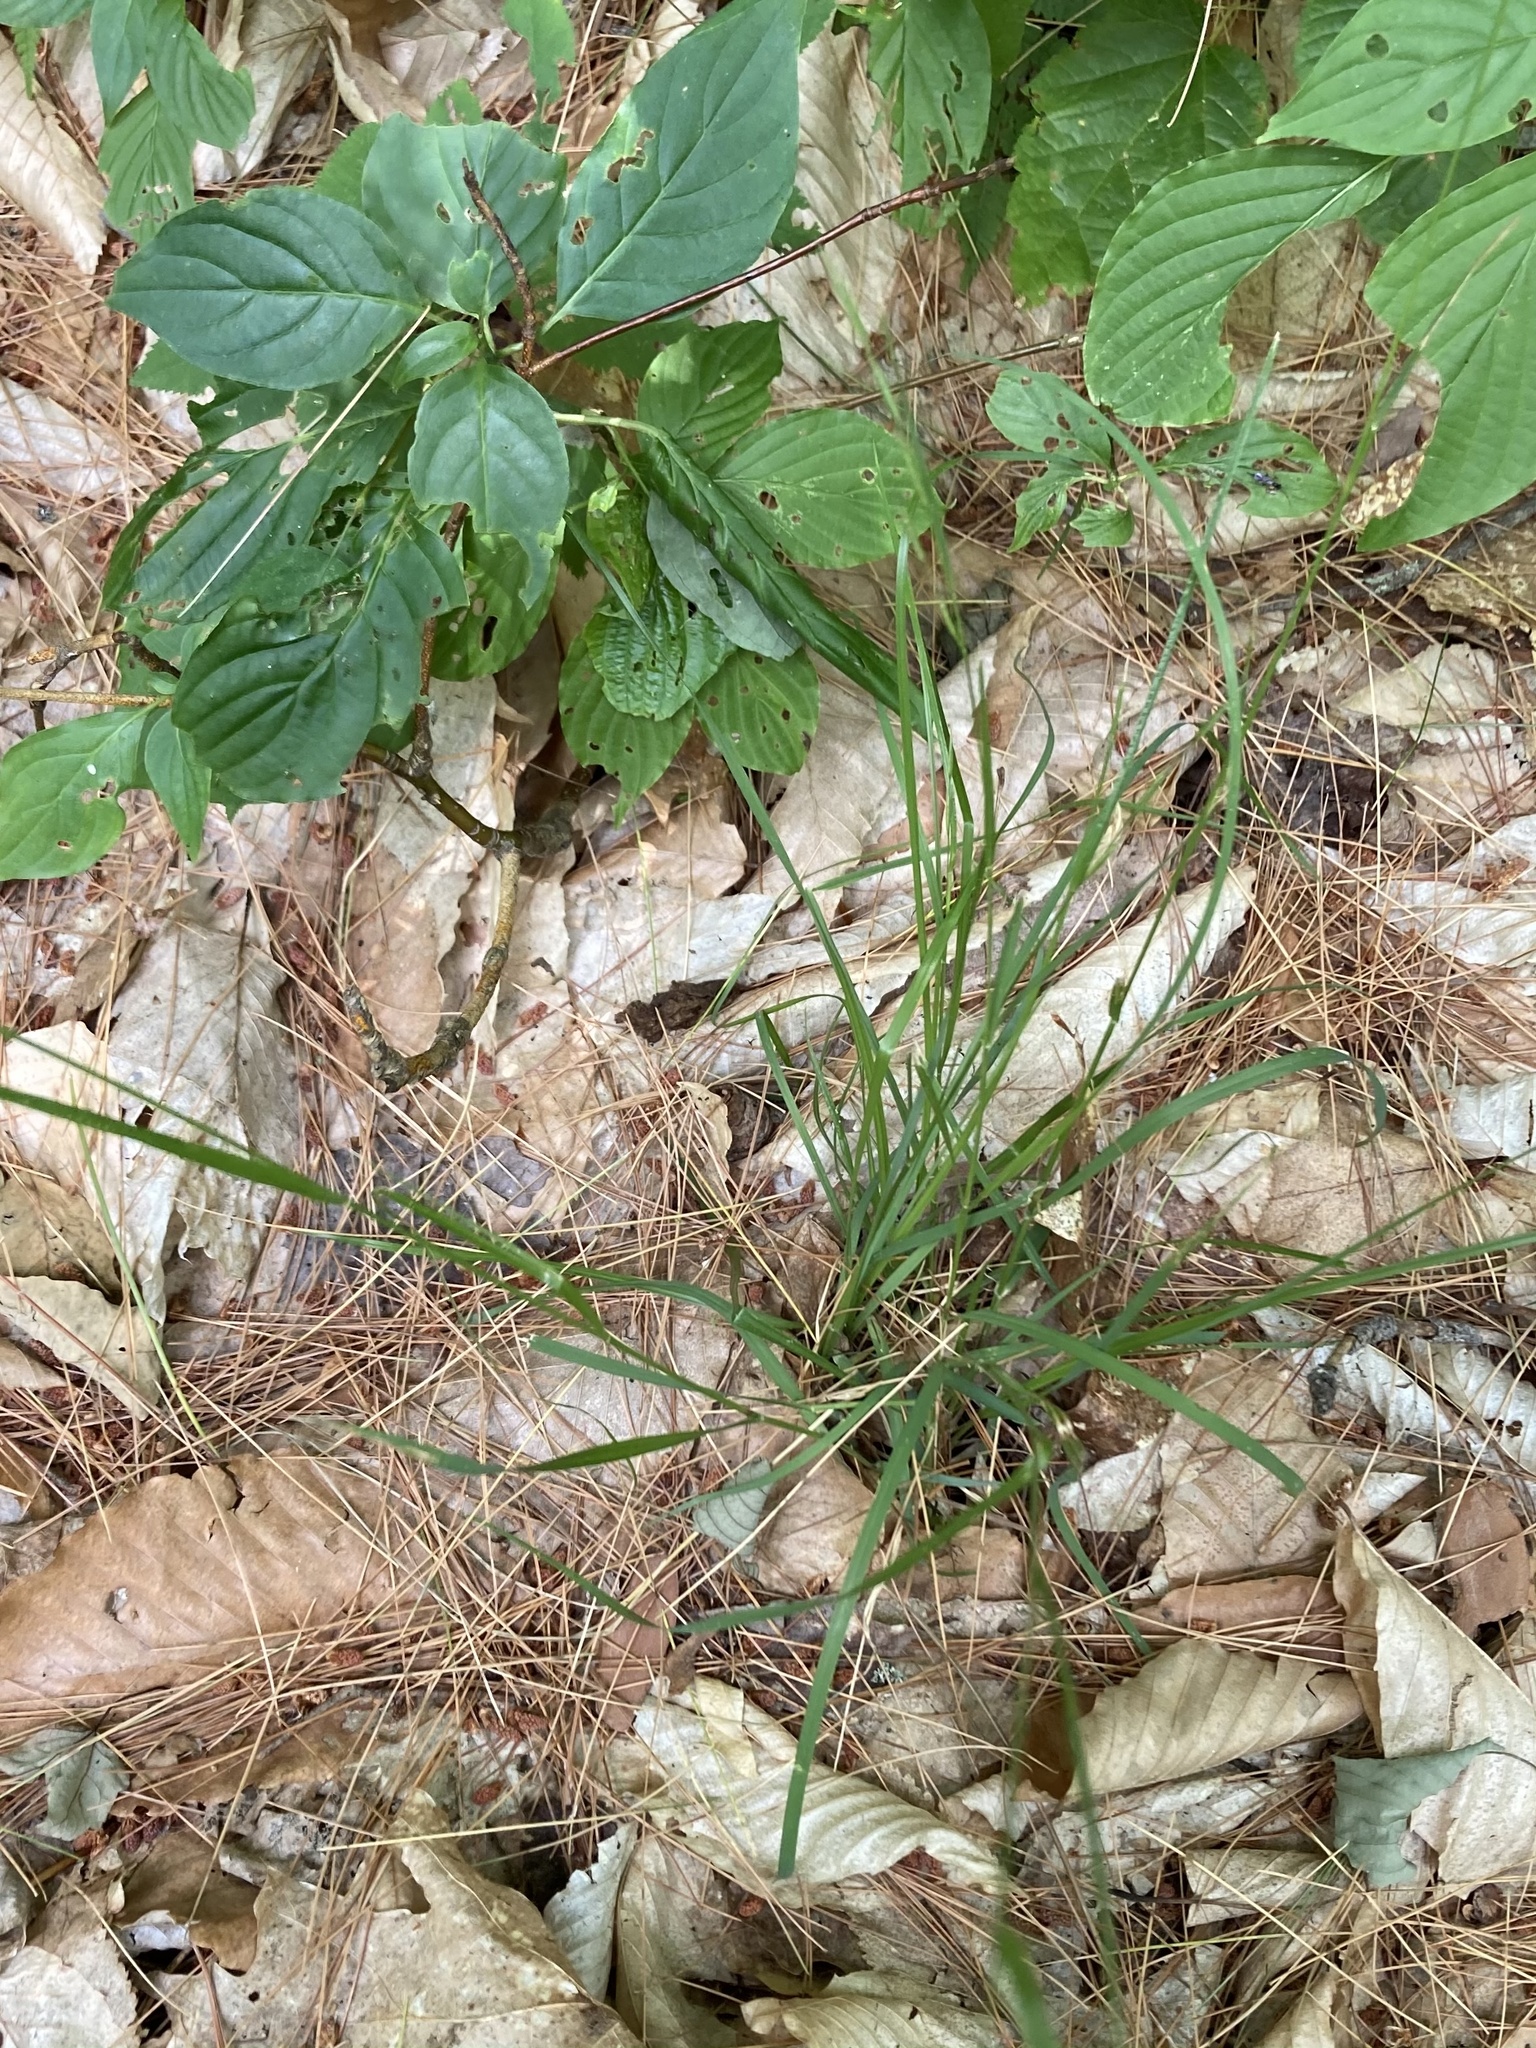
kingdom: Plantae
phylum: Tracheophyta
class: Liliopsida
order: Poales
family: Poaceae
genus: Danthonia
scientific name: Danthonia compressa
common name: Flat-stem oat grass
